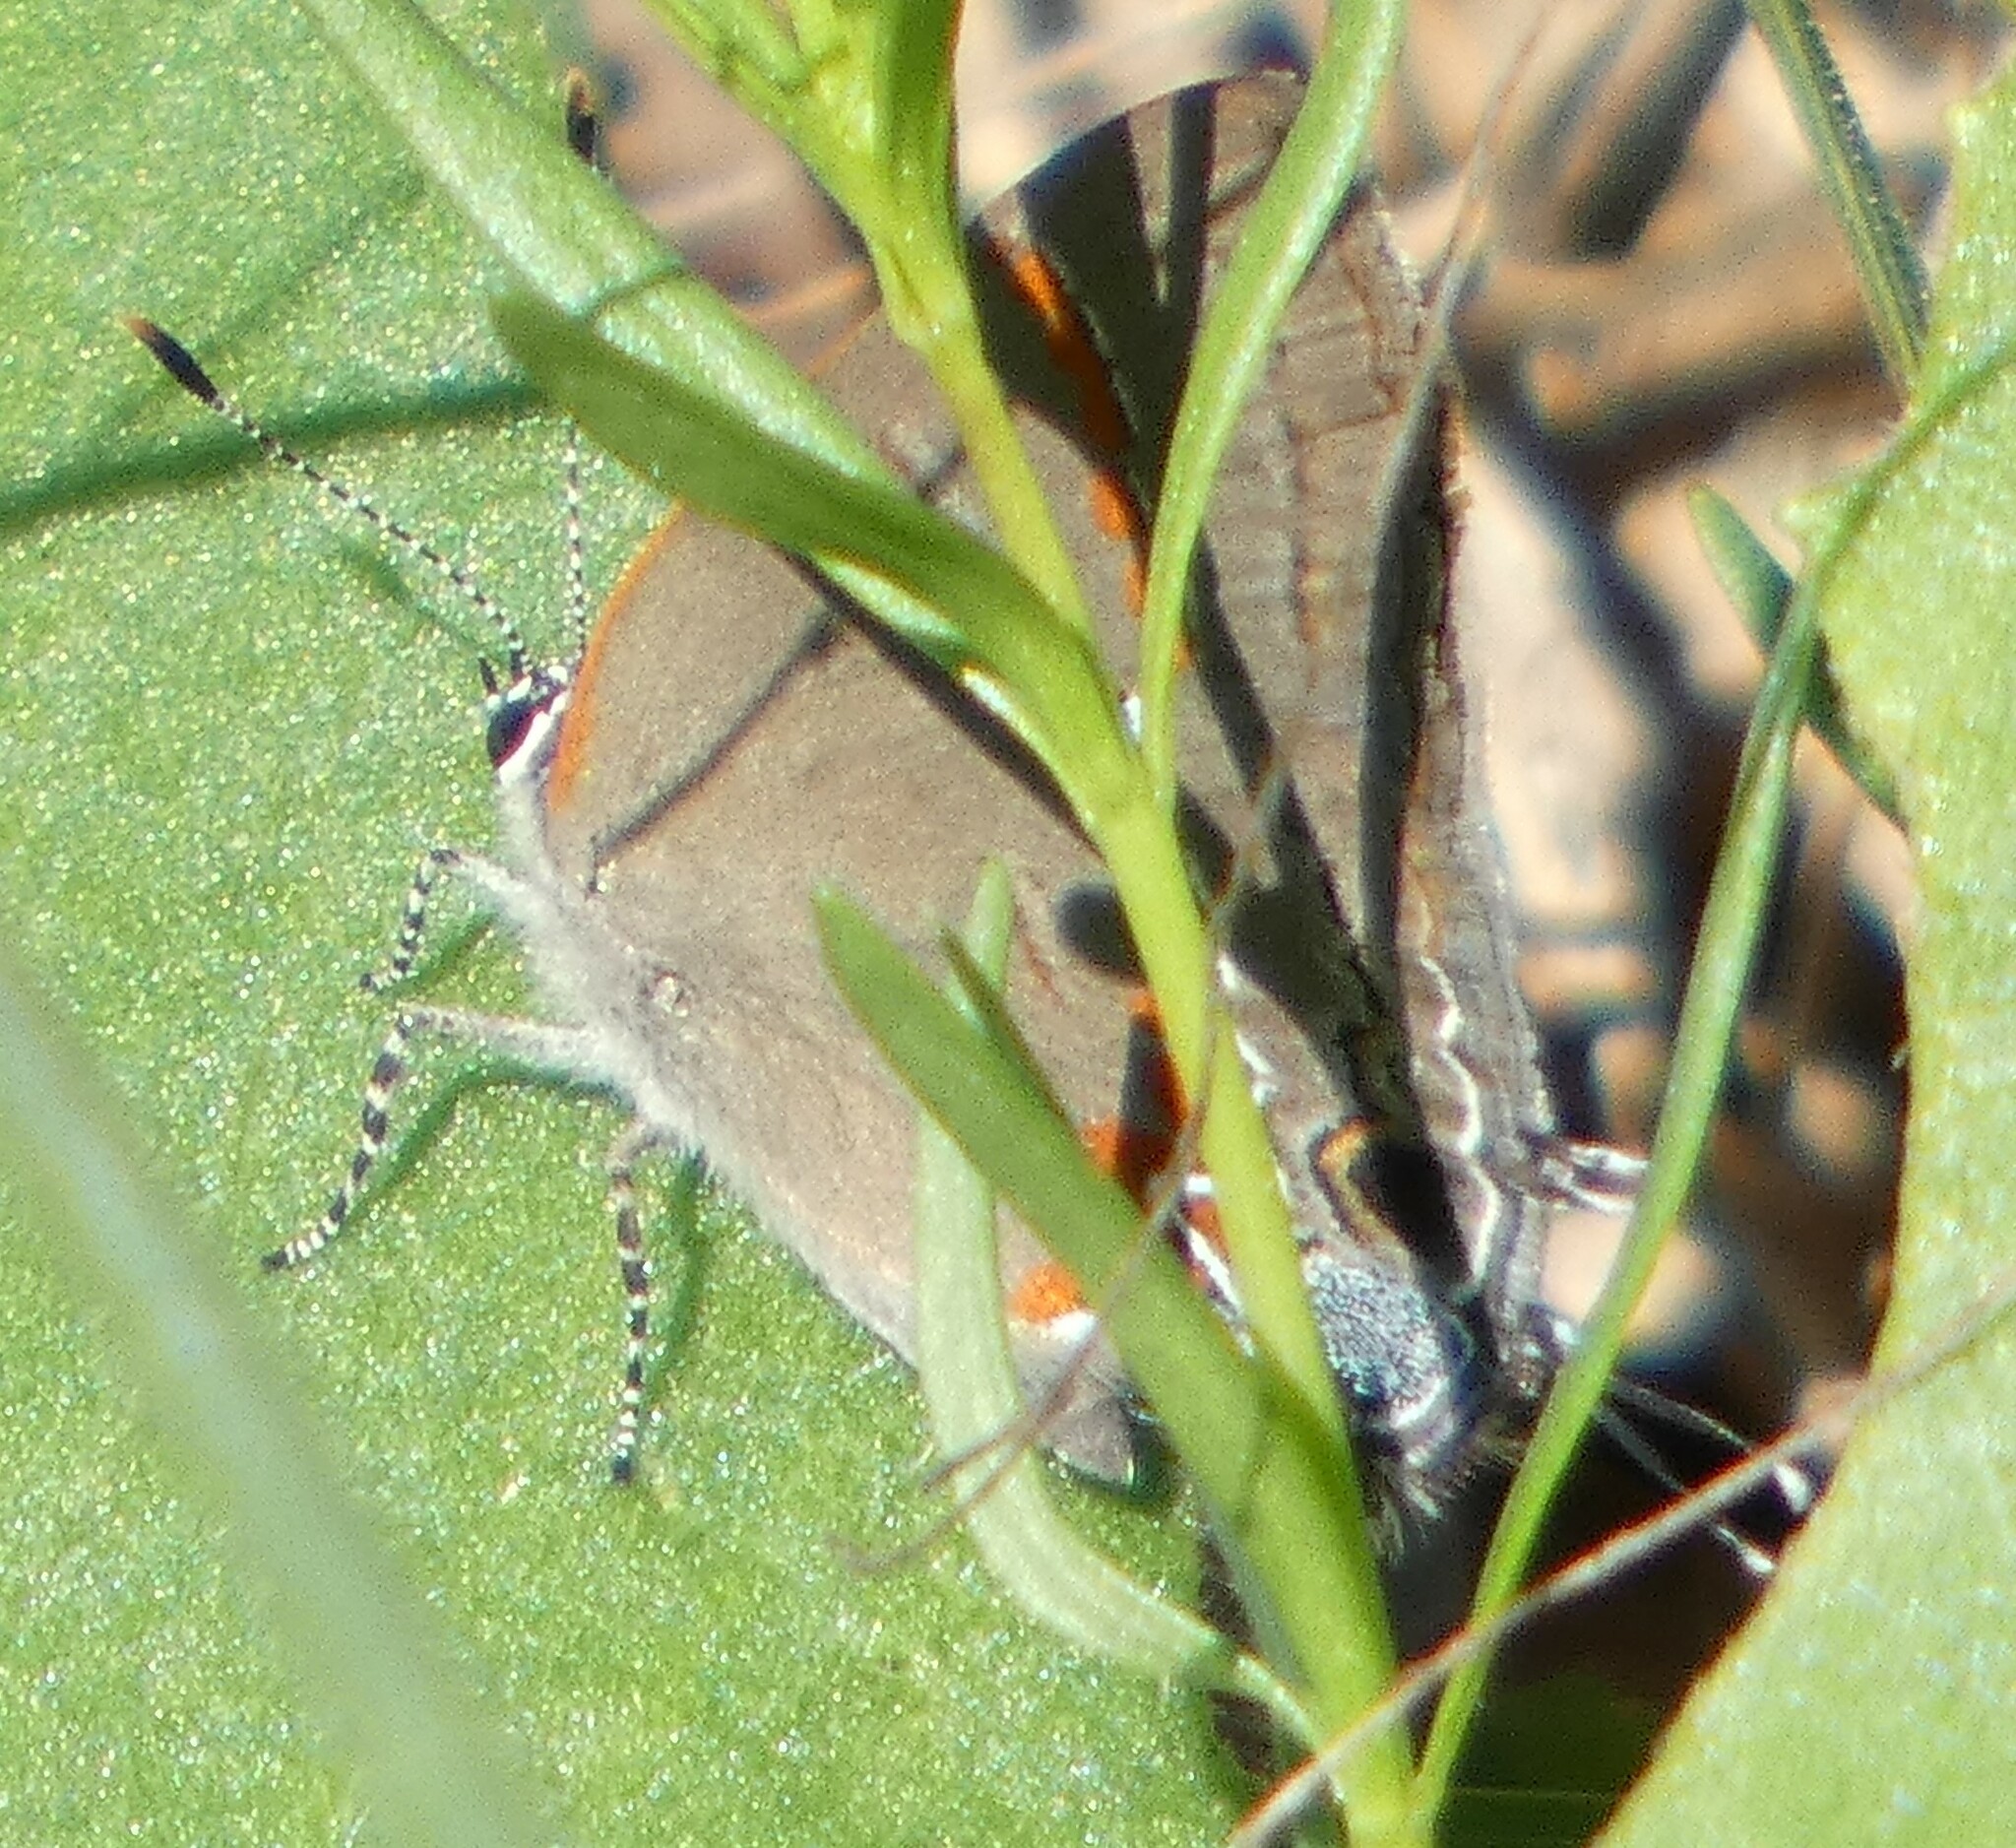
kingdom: Animalia
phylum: Arthropoda
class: Insecta
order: Lepidoptera
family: Lycaenidae
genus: Calycopis
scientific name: Calycopis cecrops
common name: Red-banded hairstreak
